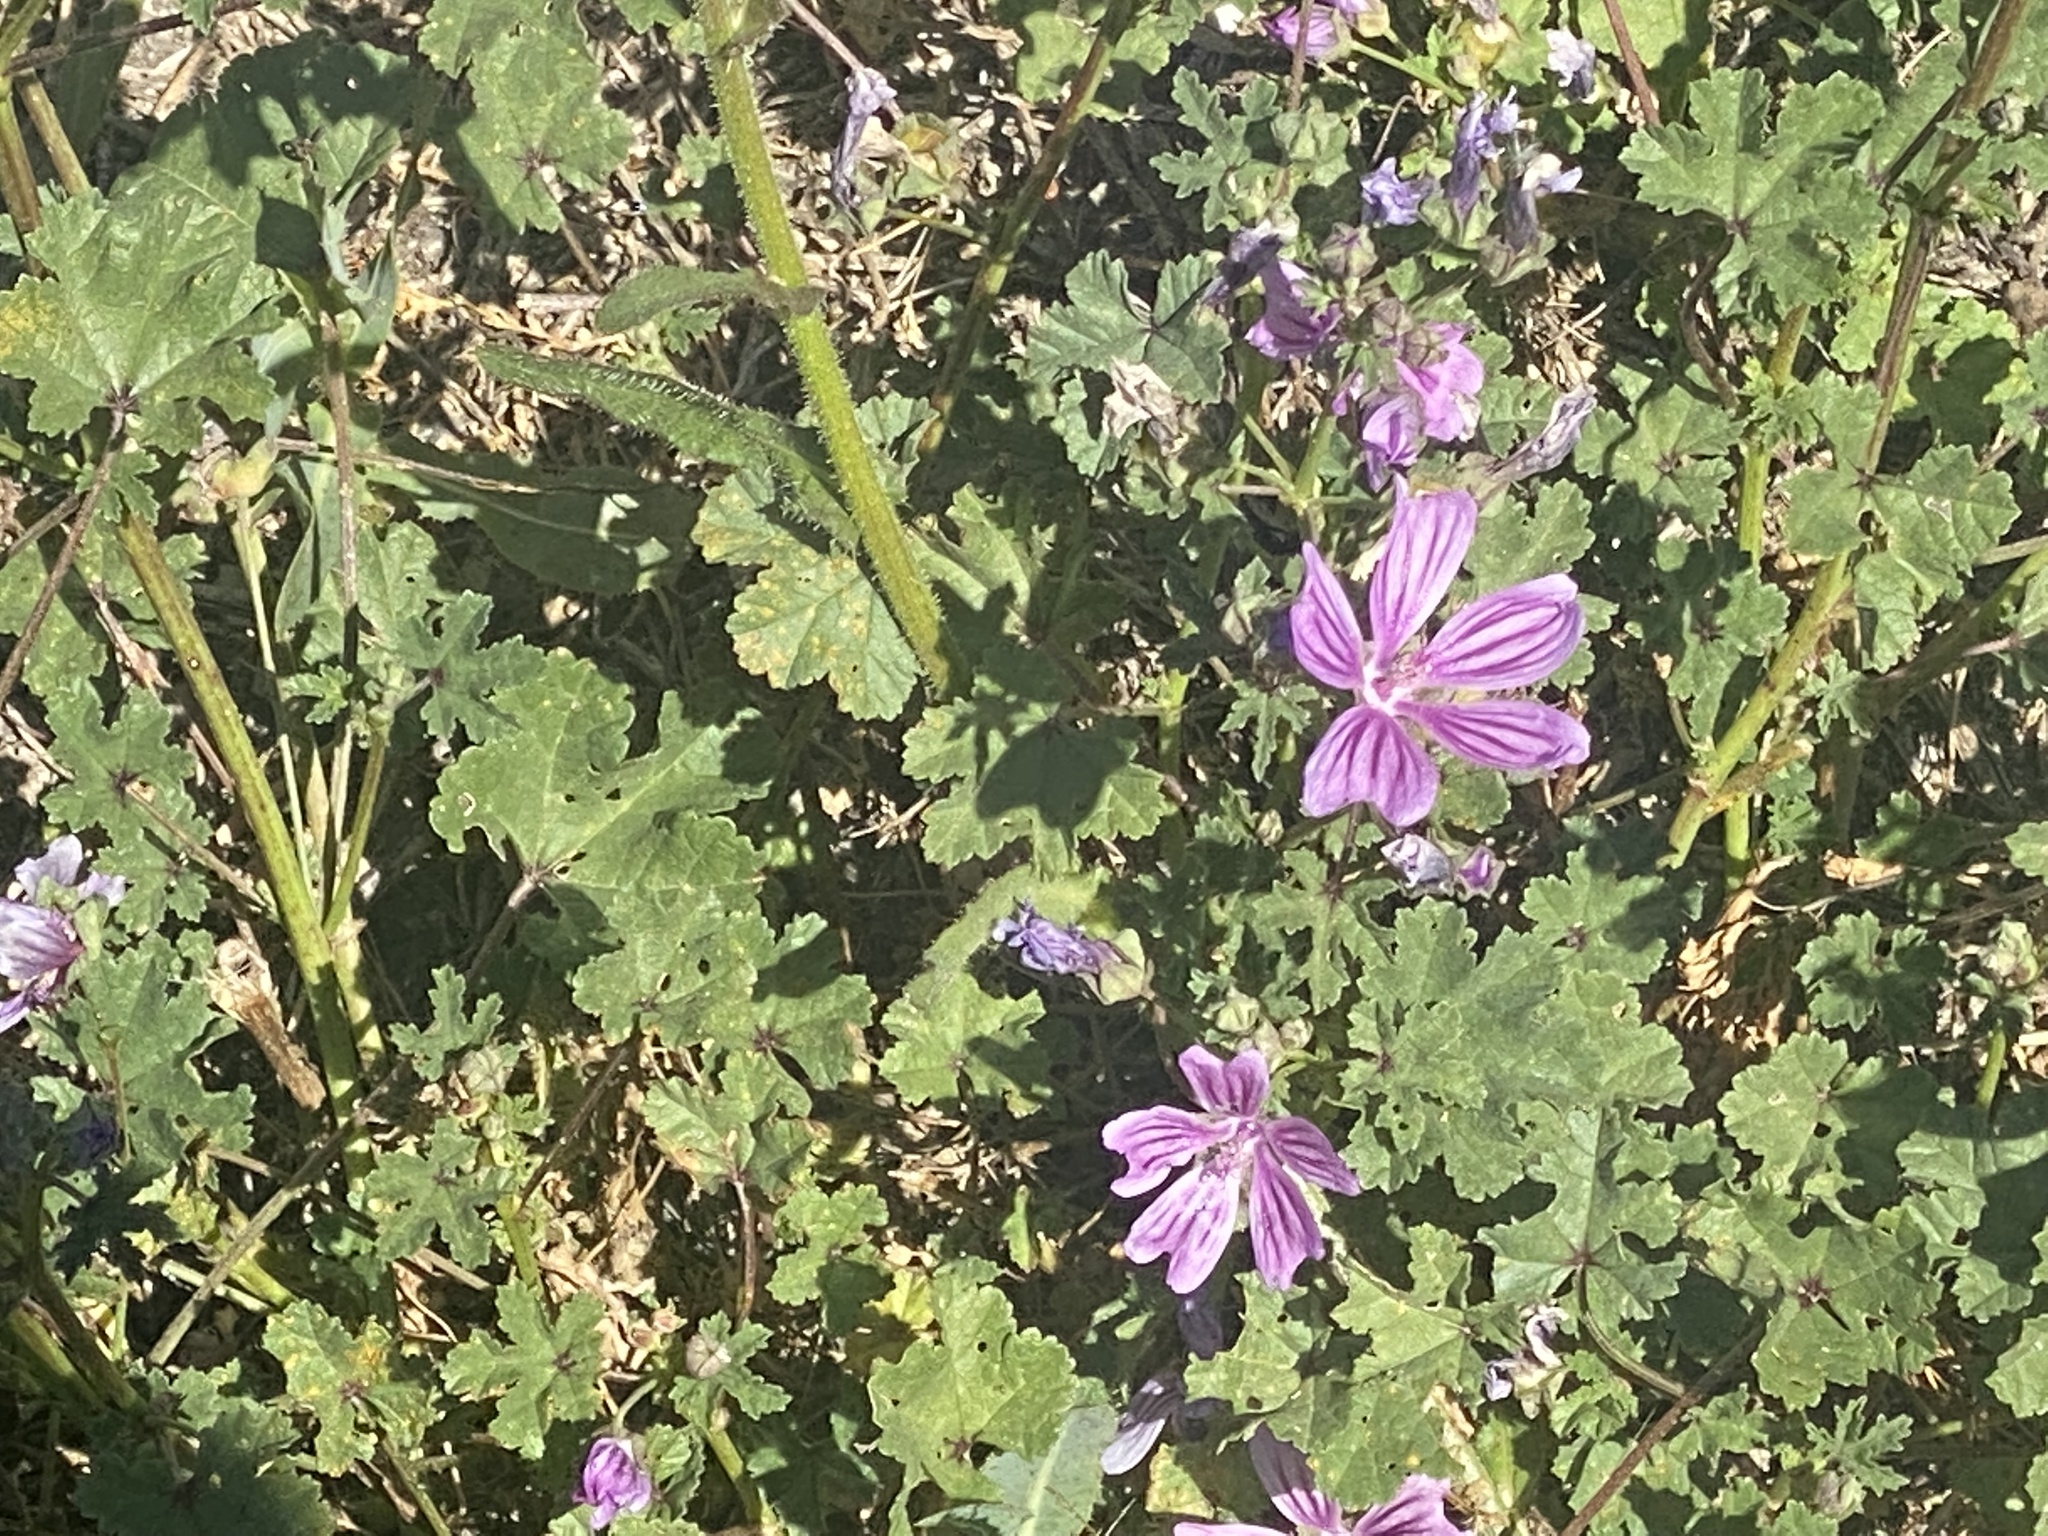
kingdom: Plantae
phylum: Tracheophyta
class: Magnoliopsida
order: Malvales
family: Malvaceae
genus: Malva
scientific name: Malva sylvestris
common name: Common mallow
